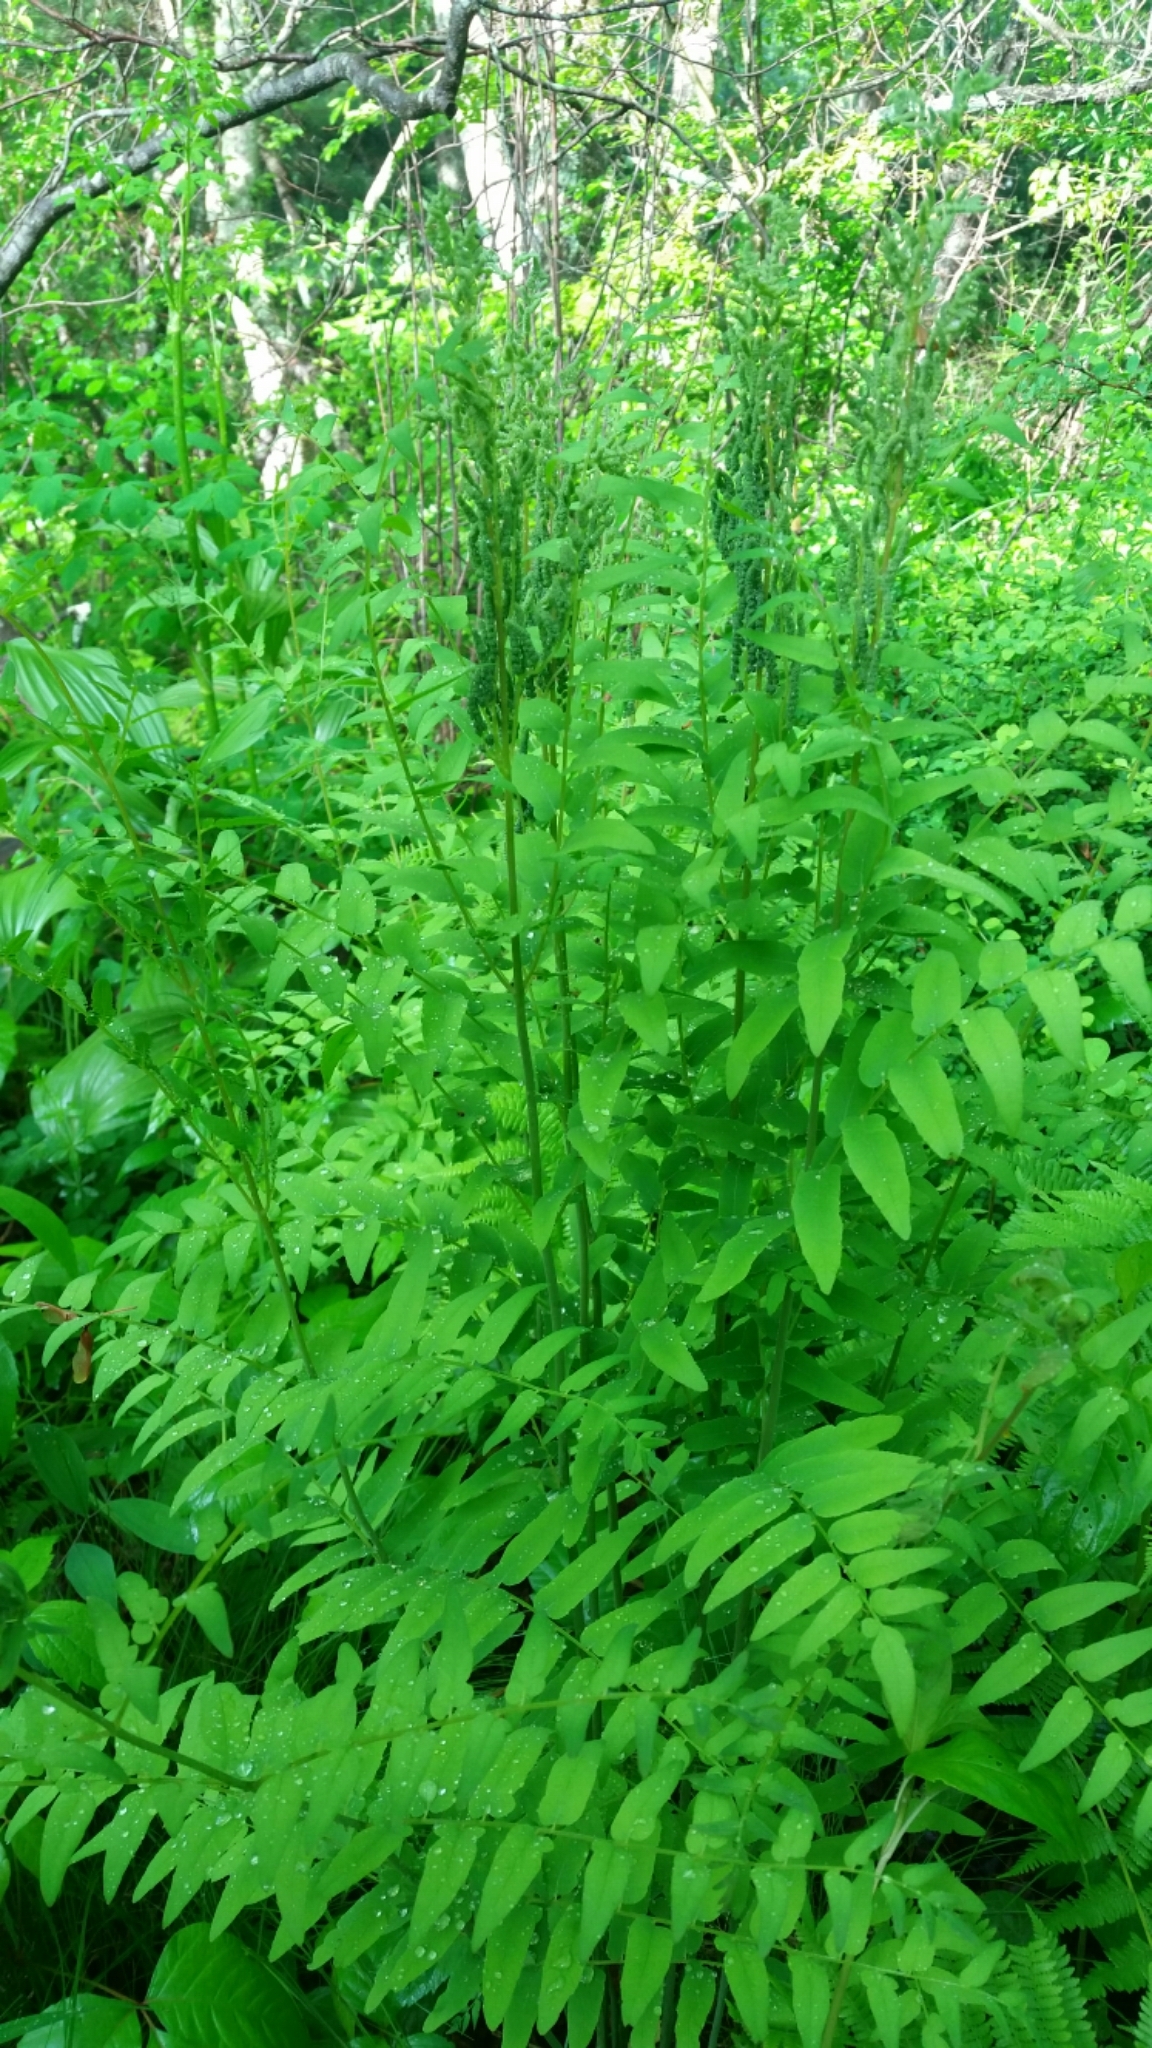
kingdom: Plantae
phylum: Tracheophyta
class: Polypodiopsida
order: Osmundales
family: Osmundaceae
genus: Osmunda
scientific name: Osmunda spectabilis
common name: American royal fern
